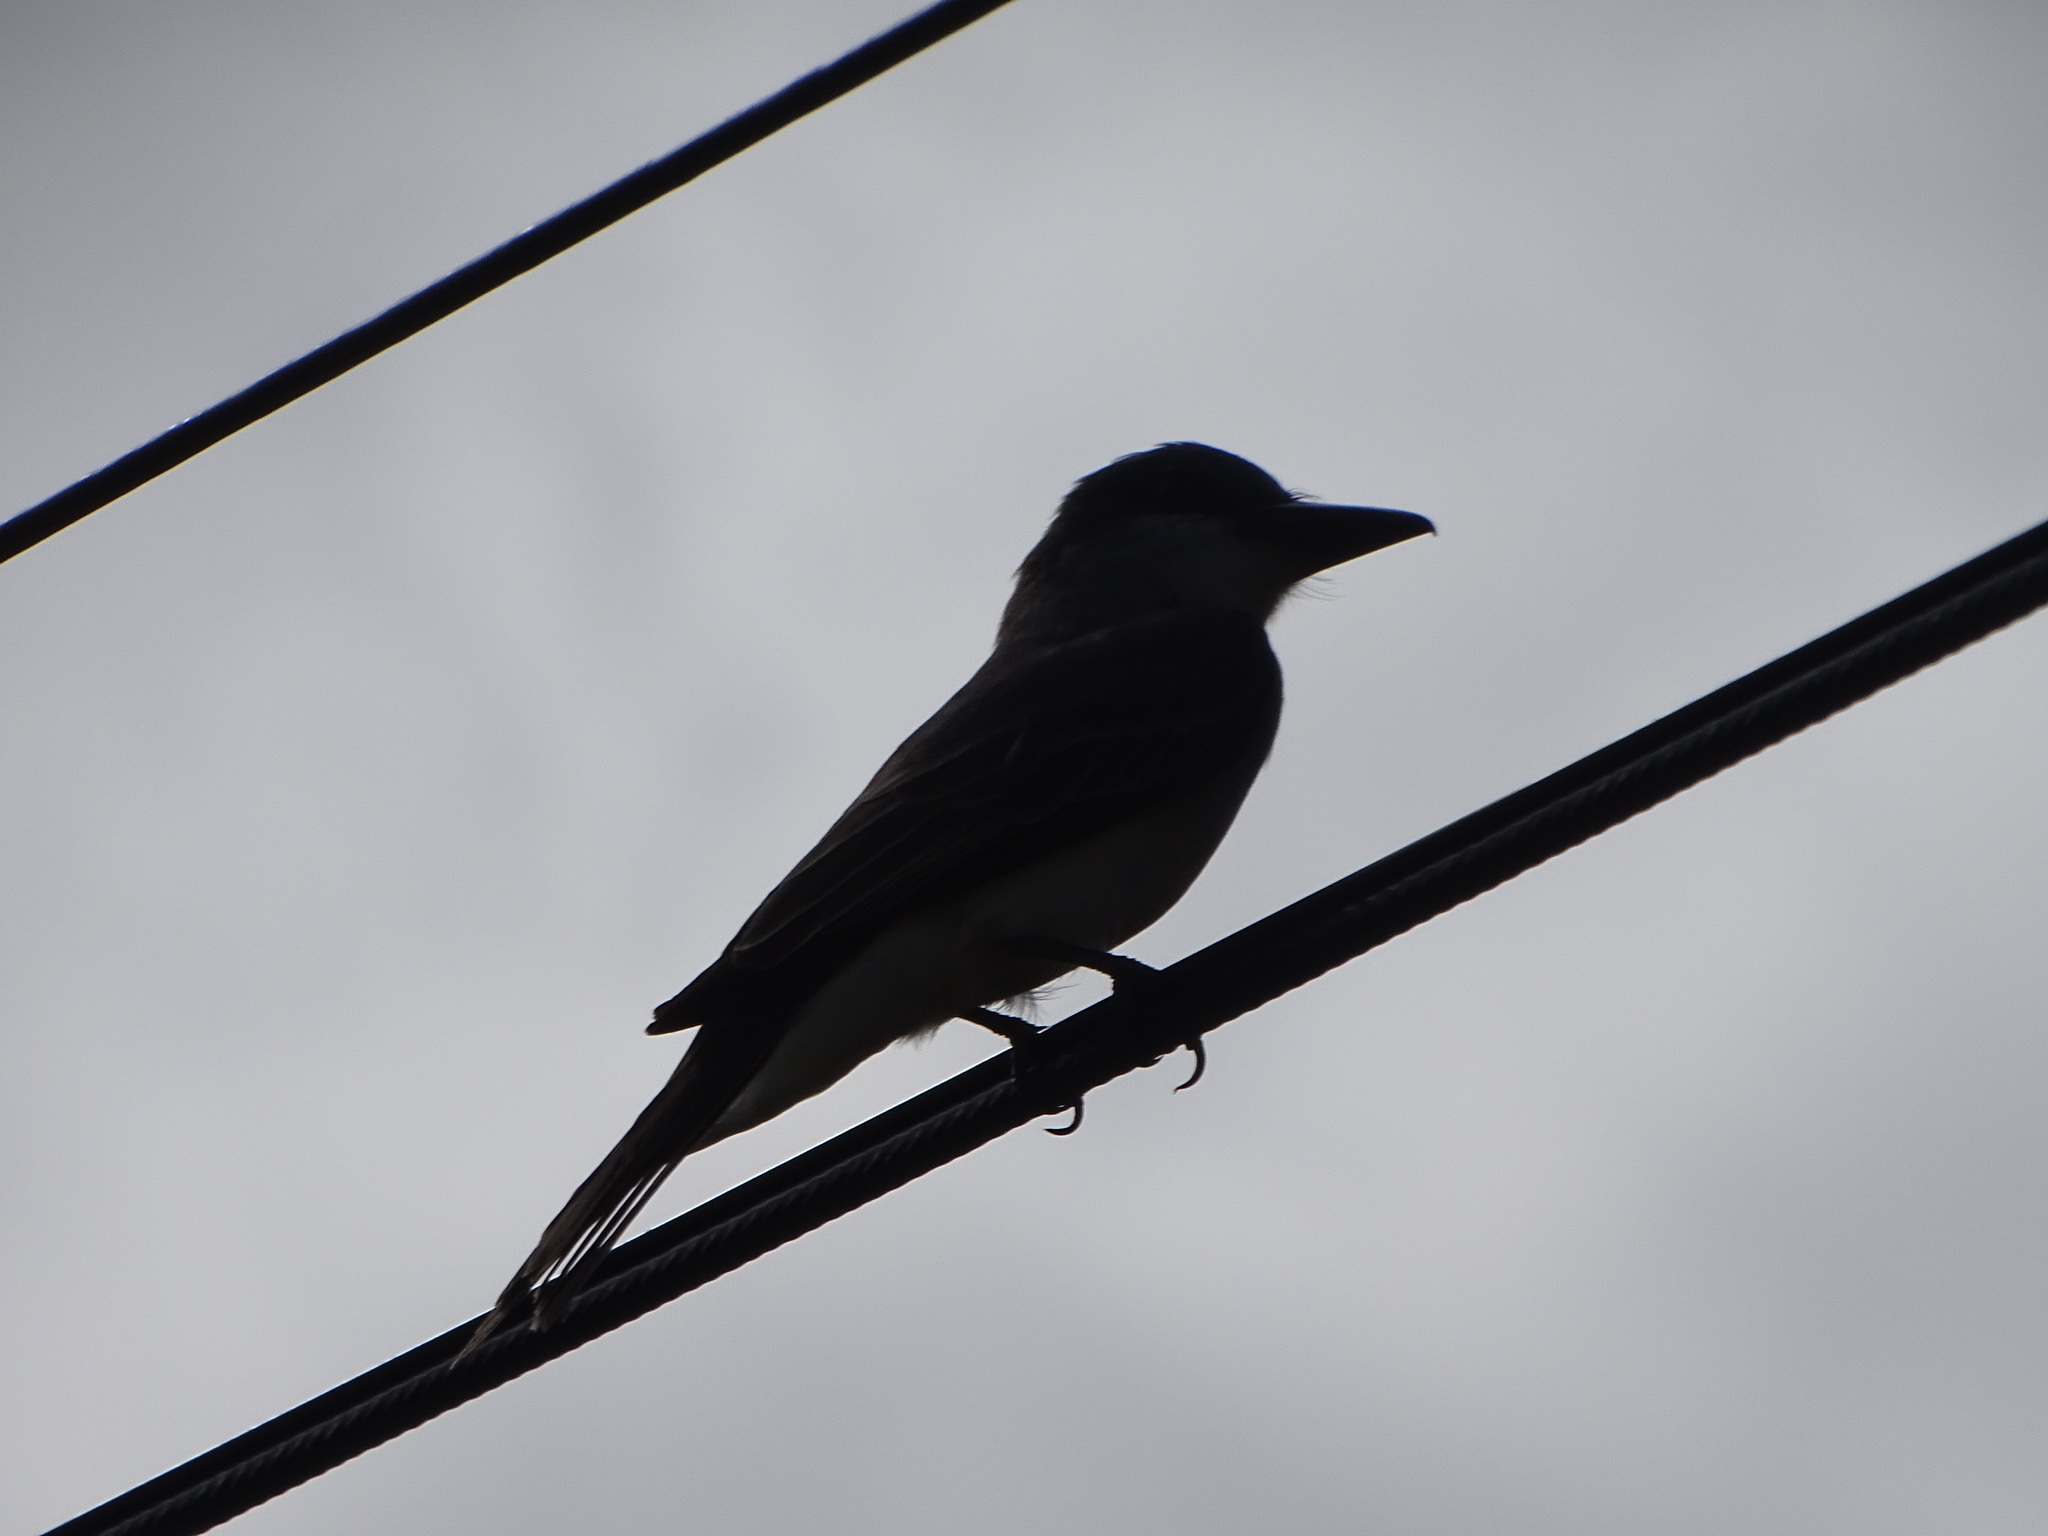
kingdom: Animalia
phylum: Chordata
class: Aves
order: Passeriformes
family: Tyrannidae
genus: Tyrannus
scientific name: Tyrannus dominicensis
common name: Gray kingbird
